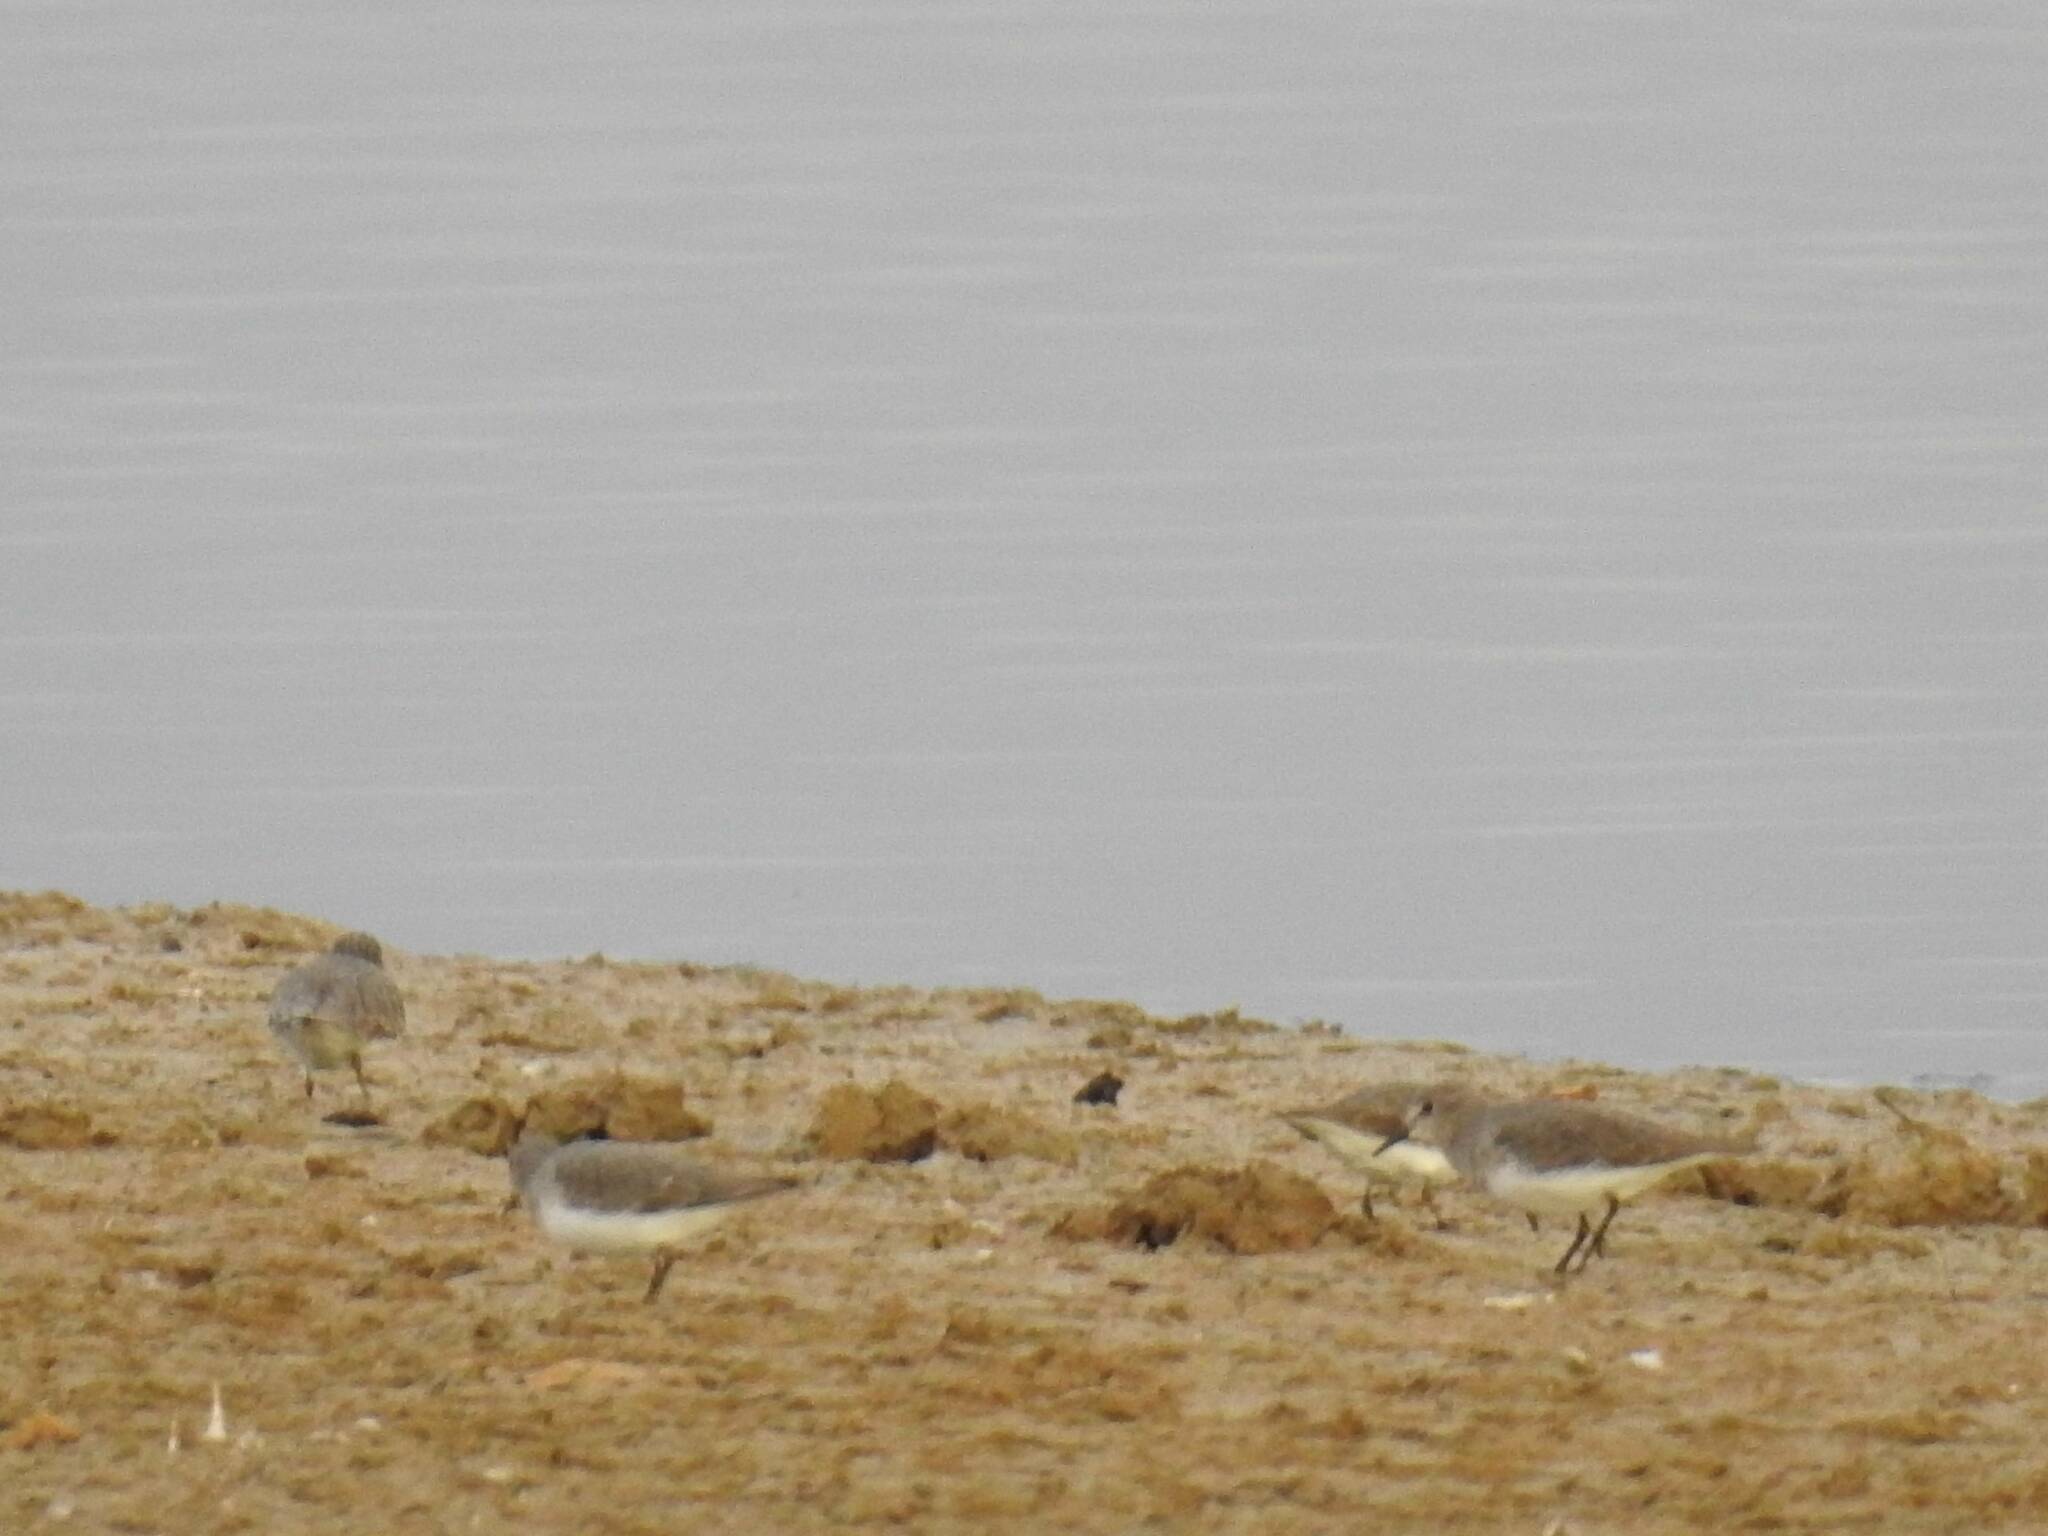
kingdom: Animalia
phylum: Chordata
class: Aves
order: Charadriiformes
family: Scolopacidae
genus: Calidris
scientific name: Calidris temminckii
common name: Temminck's stint
